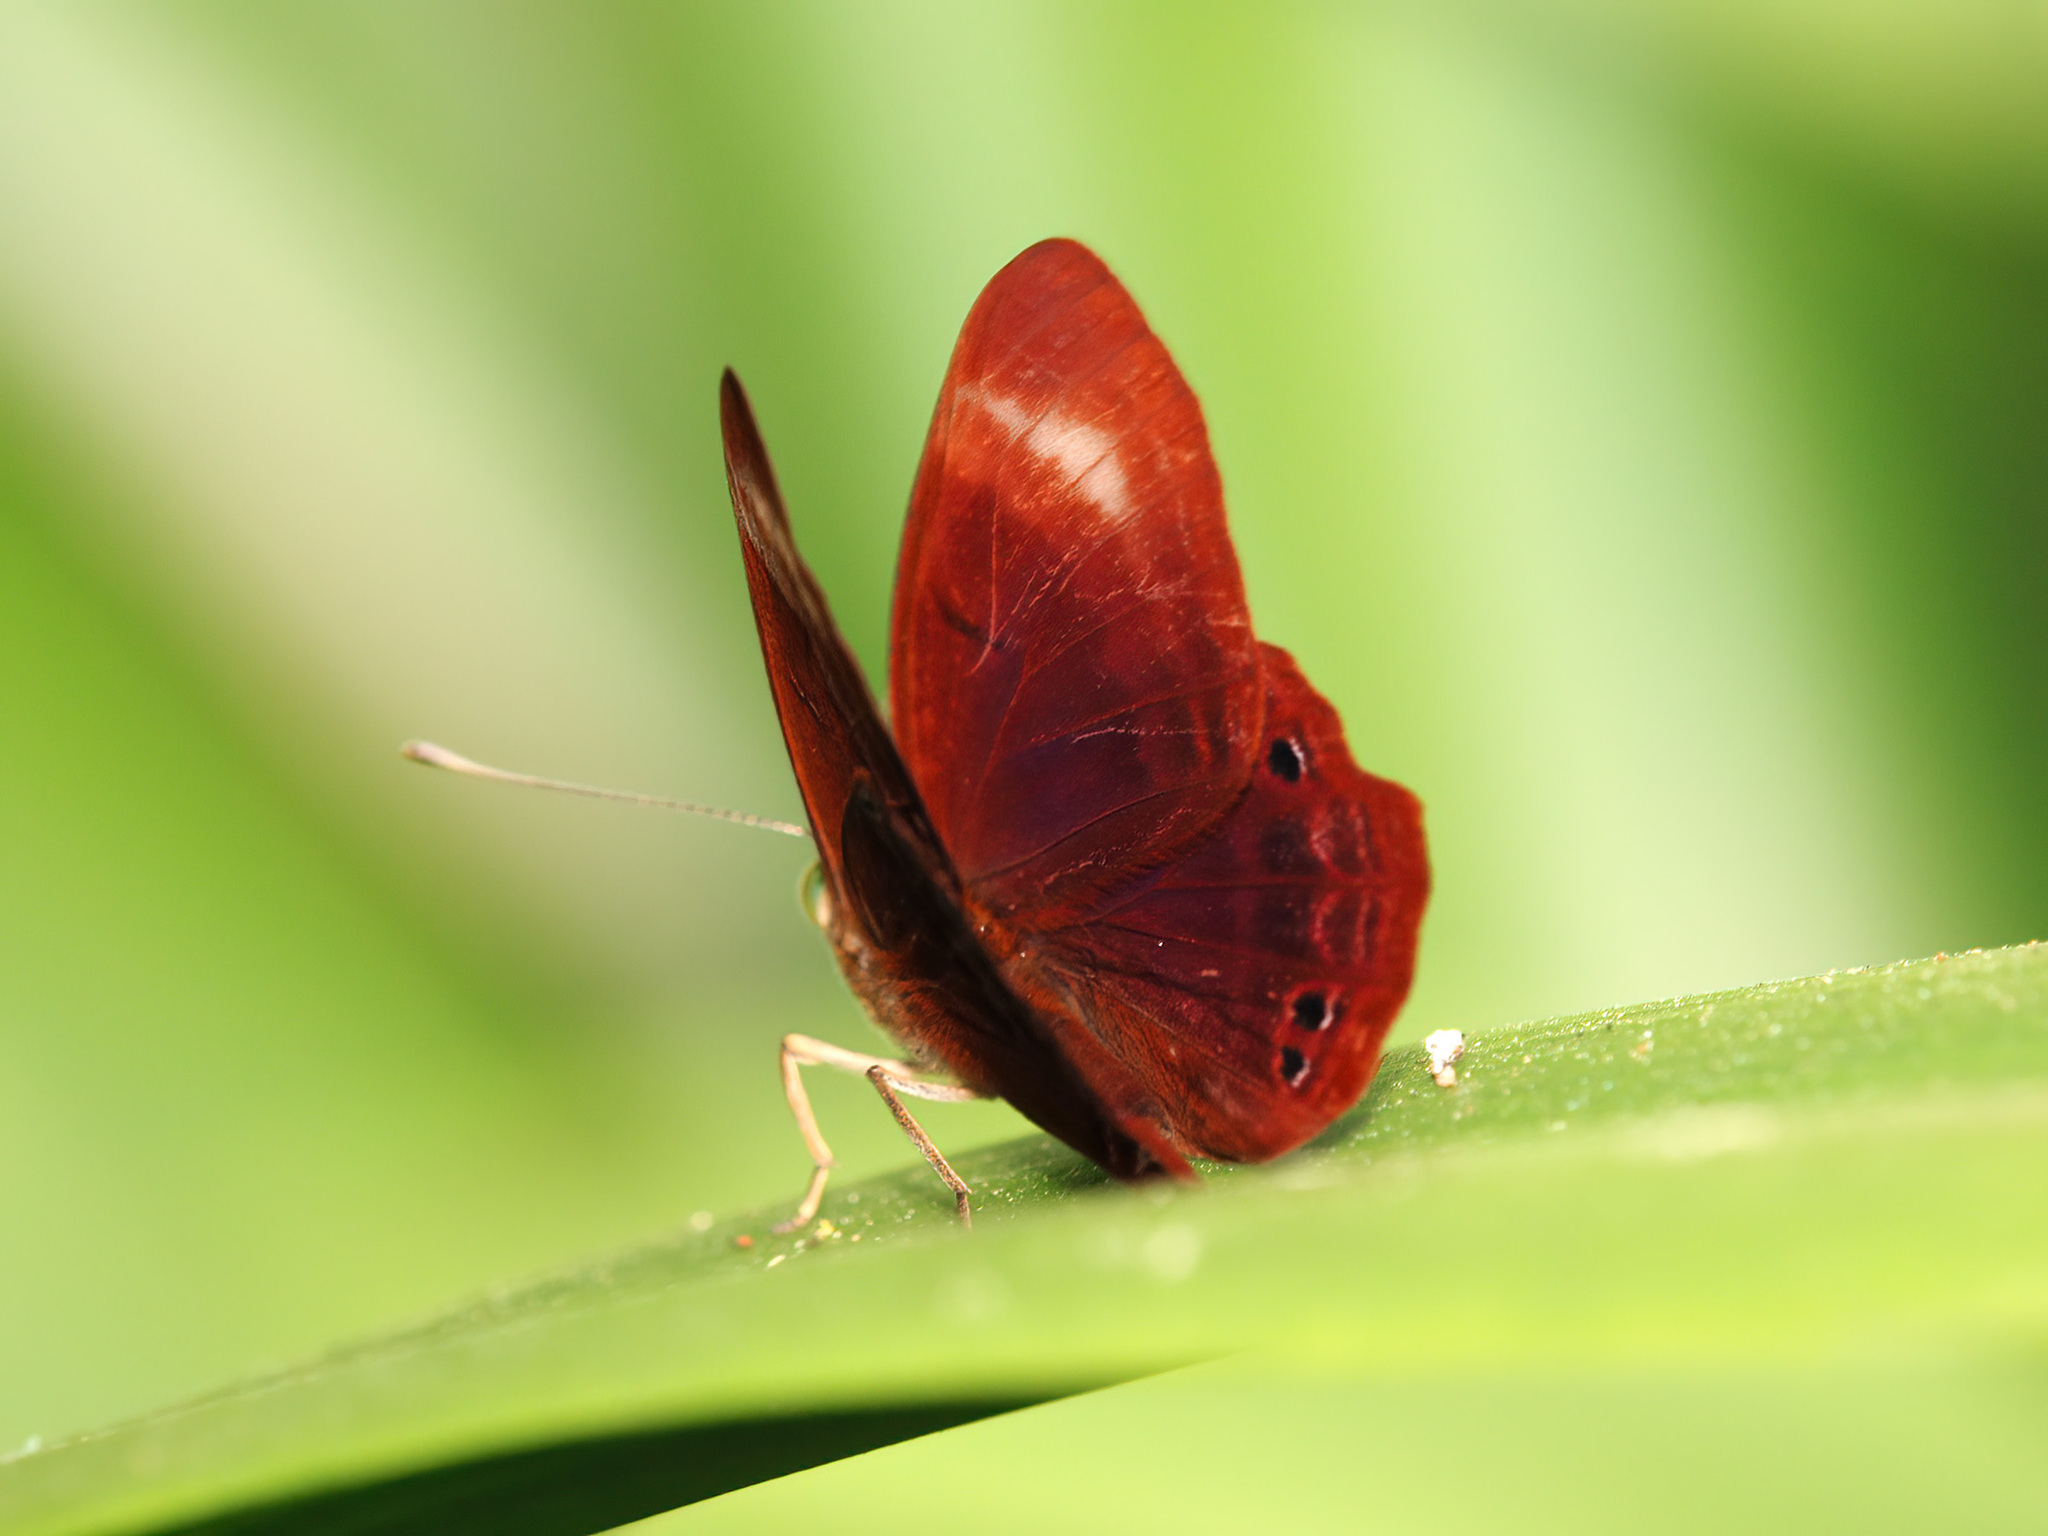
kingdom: Animalia
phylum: Arthropoda
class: Insecta
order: Lepidoptera
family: Lycaenidae
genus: Abisara
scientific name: Abisara geza
